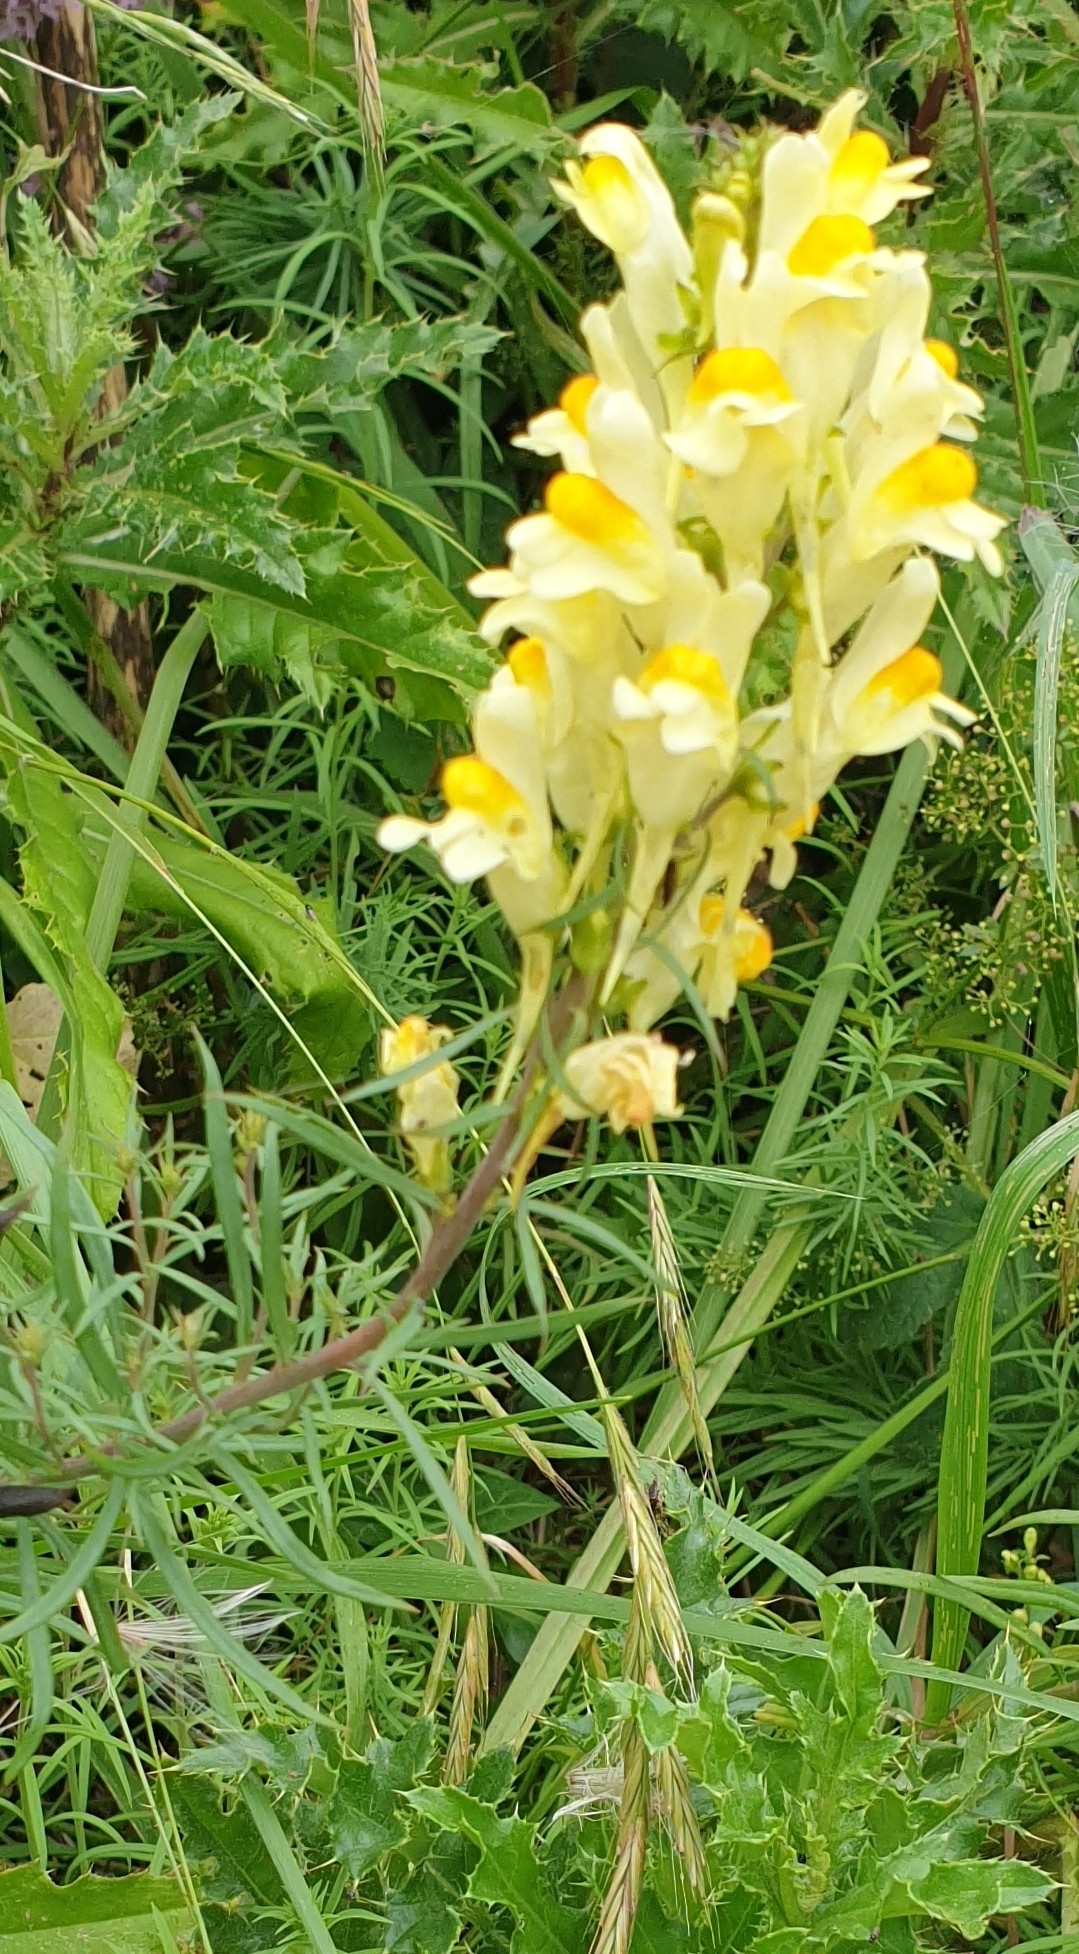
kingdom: Plantae
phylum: Tracheophyta
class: Magnoliopsida
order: Lamiales
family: Plantaginaceae
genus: Linaria
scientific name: Linaria vulgaris
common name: Butter and eggs
